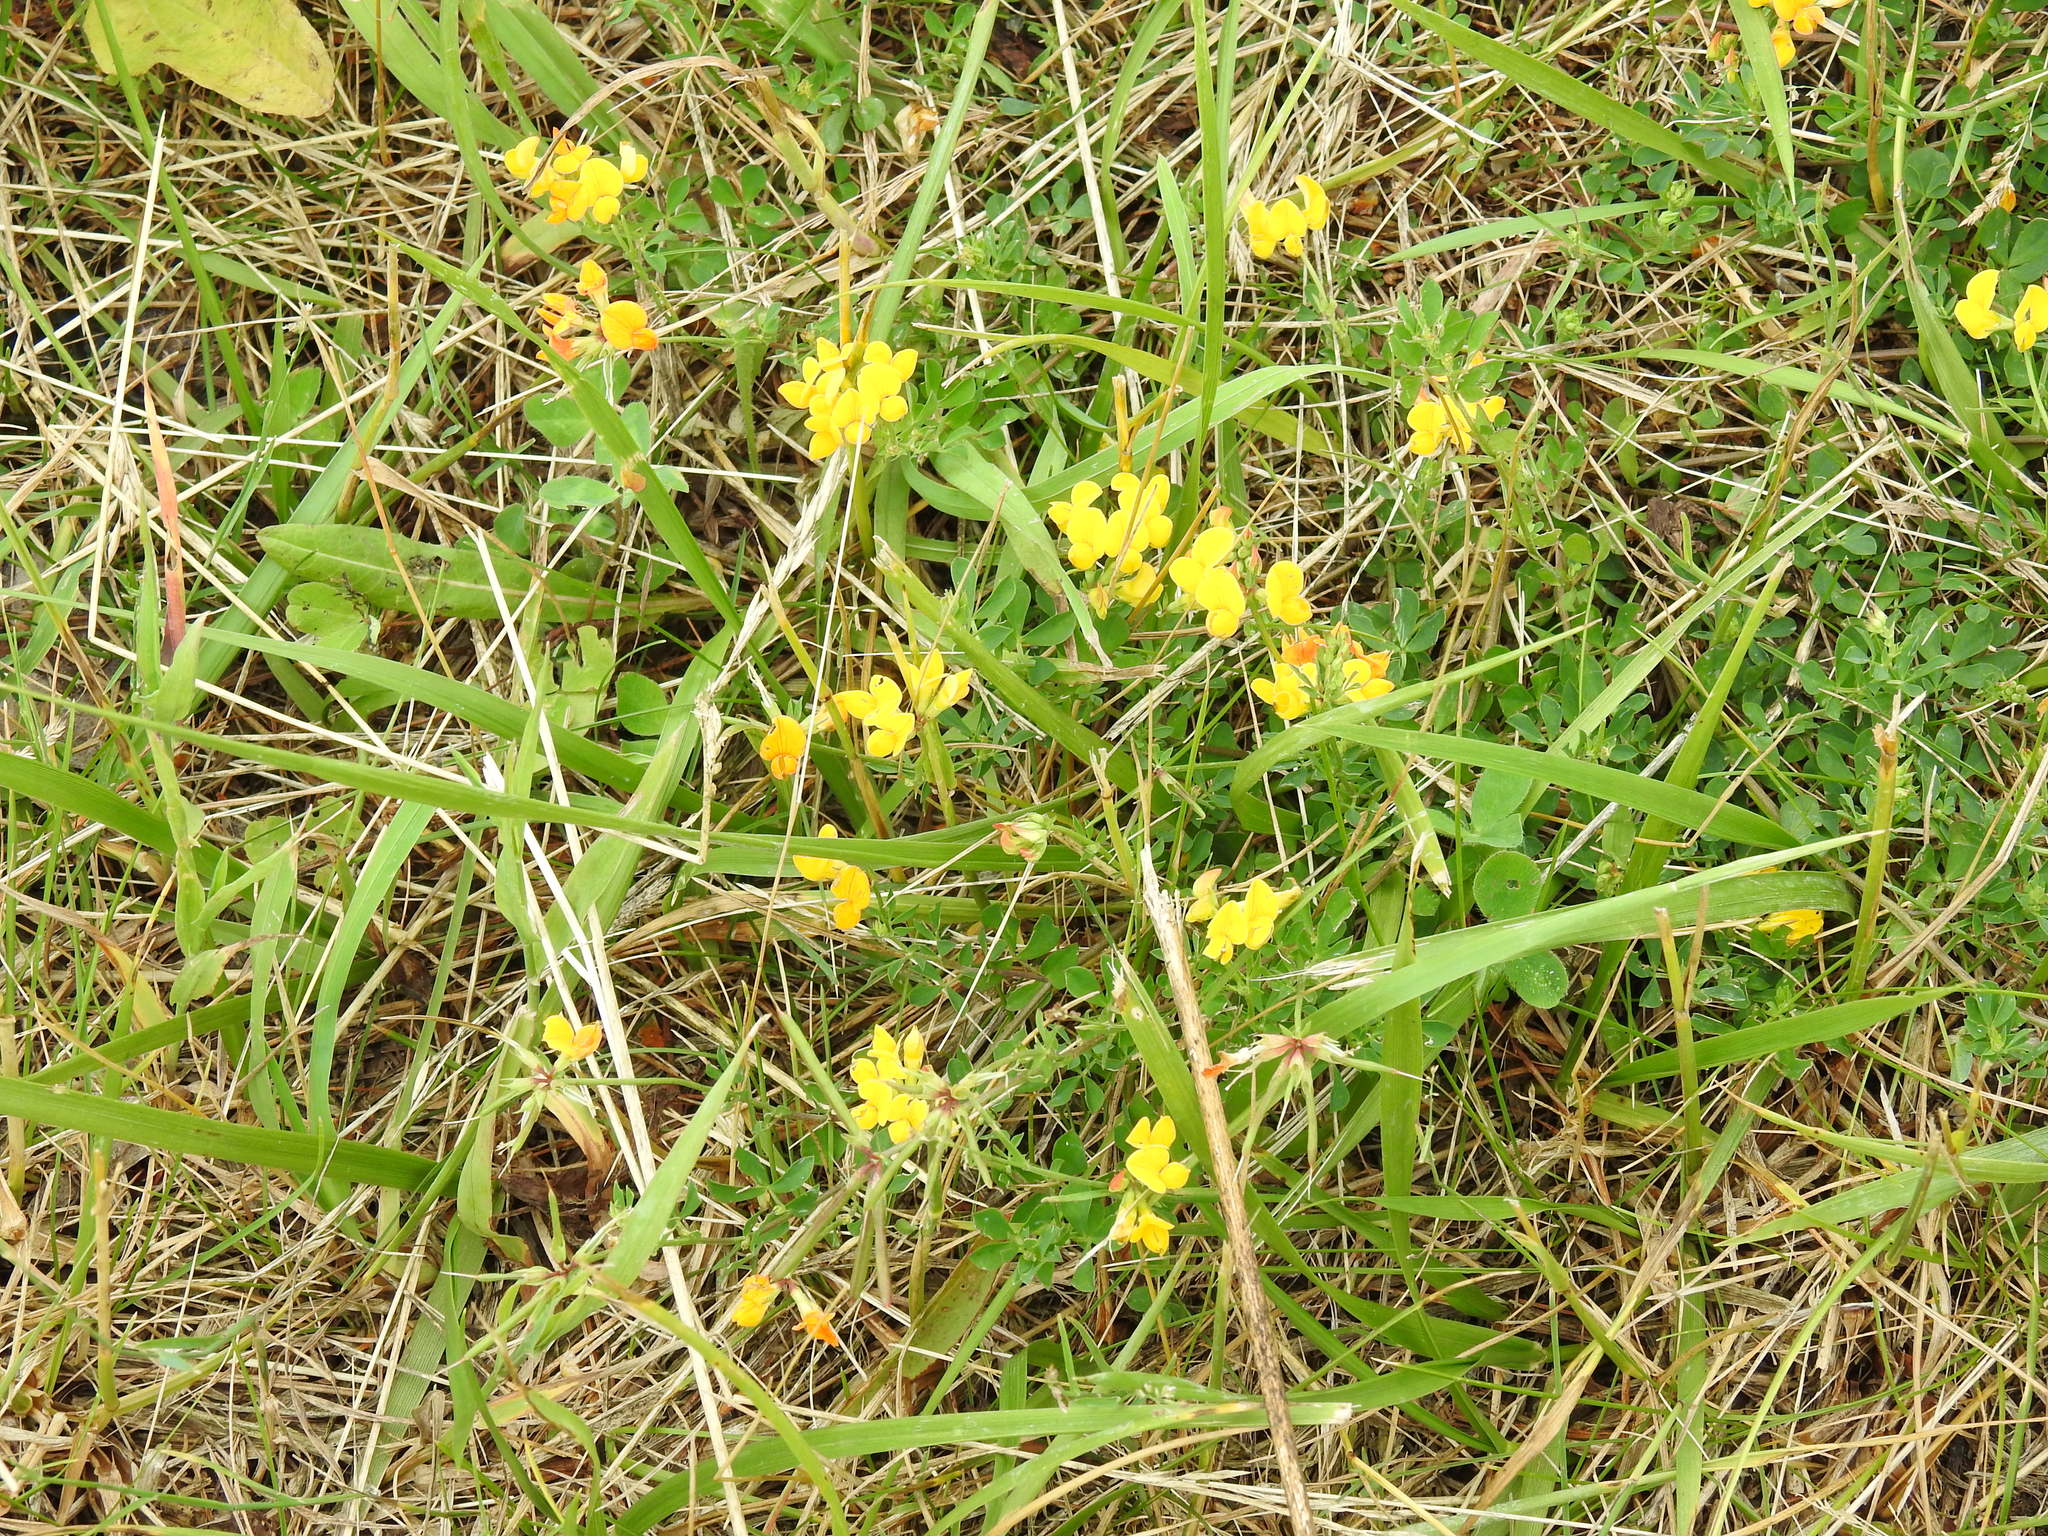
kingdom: Plantae
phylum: Tracheophyta
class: Magnoliopsida
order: Fabales
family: Fabaceae
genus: Lotus
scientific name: Lotus corniculatus
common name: Common bird's-foot-trefoil
